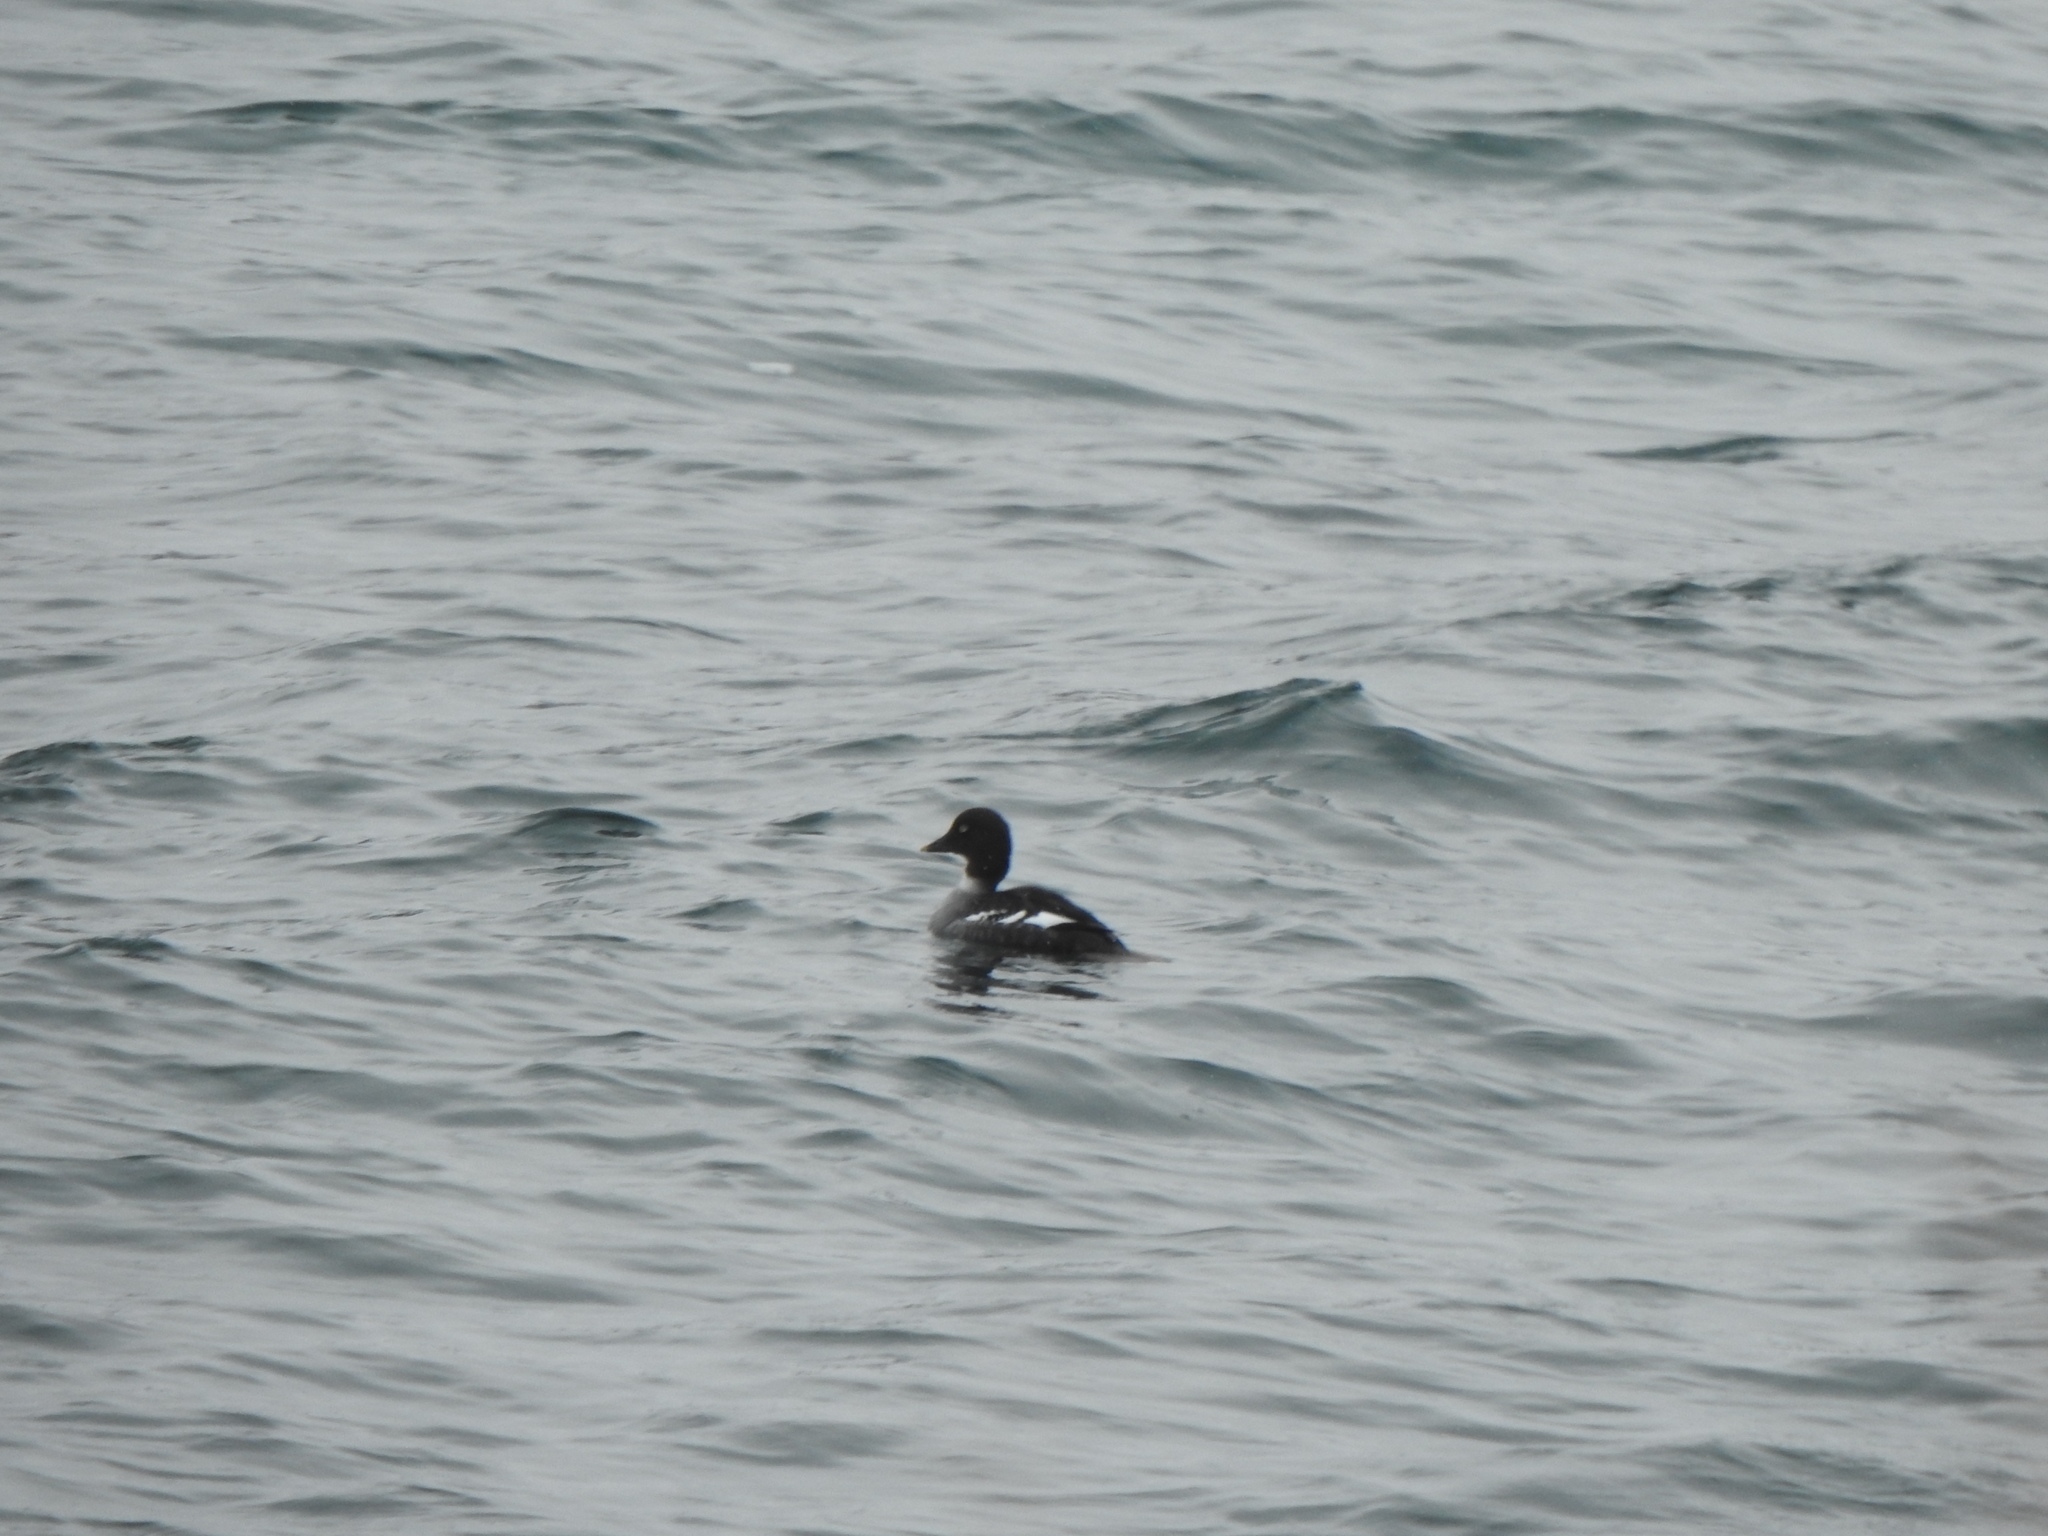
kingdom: Animalia
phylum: Chordata
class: Aves
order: Anseriformes
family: Anatidae
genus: Bucephala
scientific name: Bucephala clangula
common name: Common goldeneye
